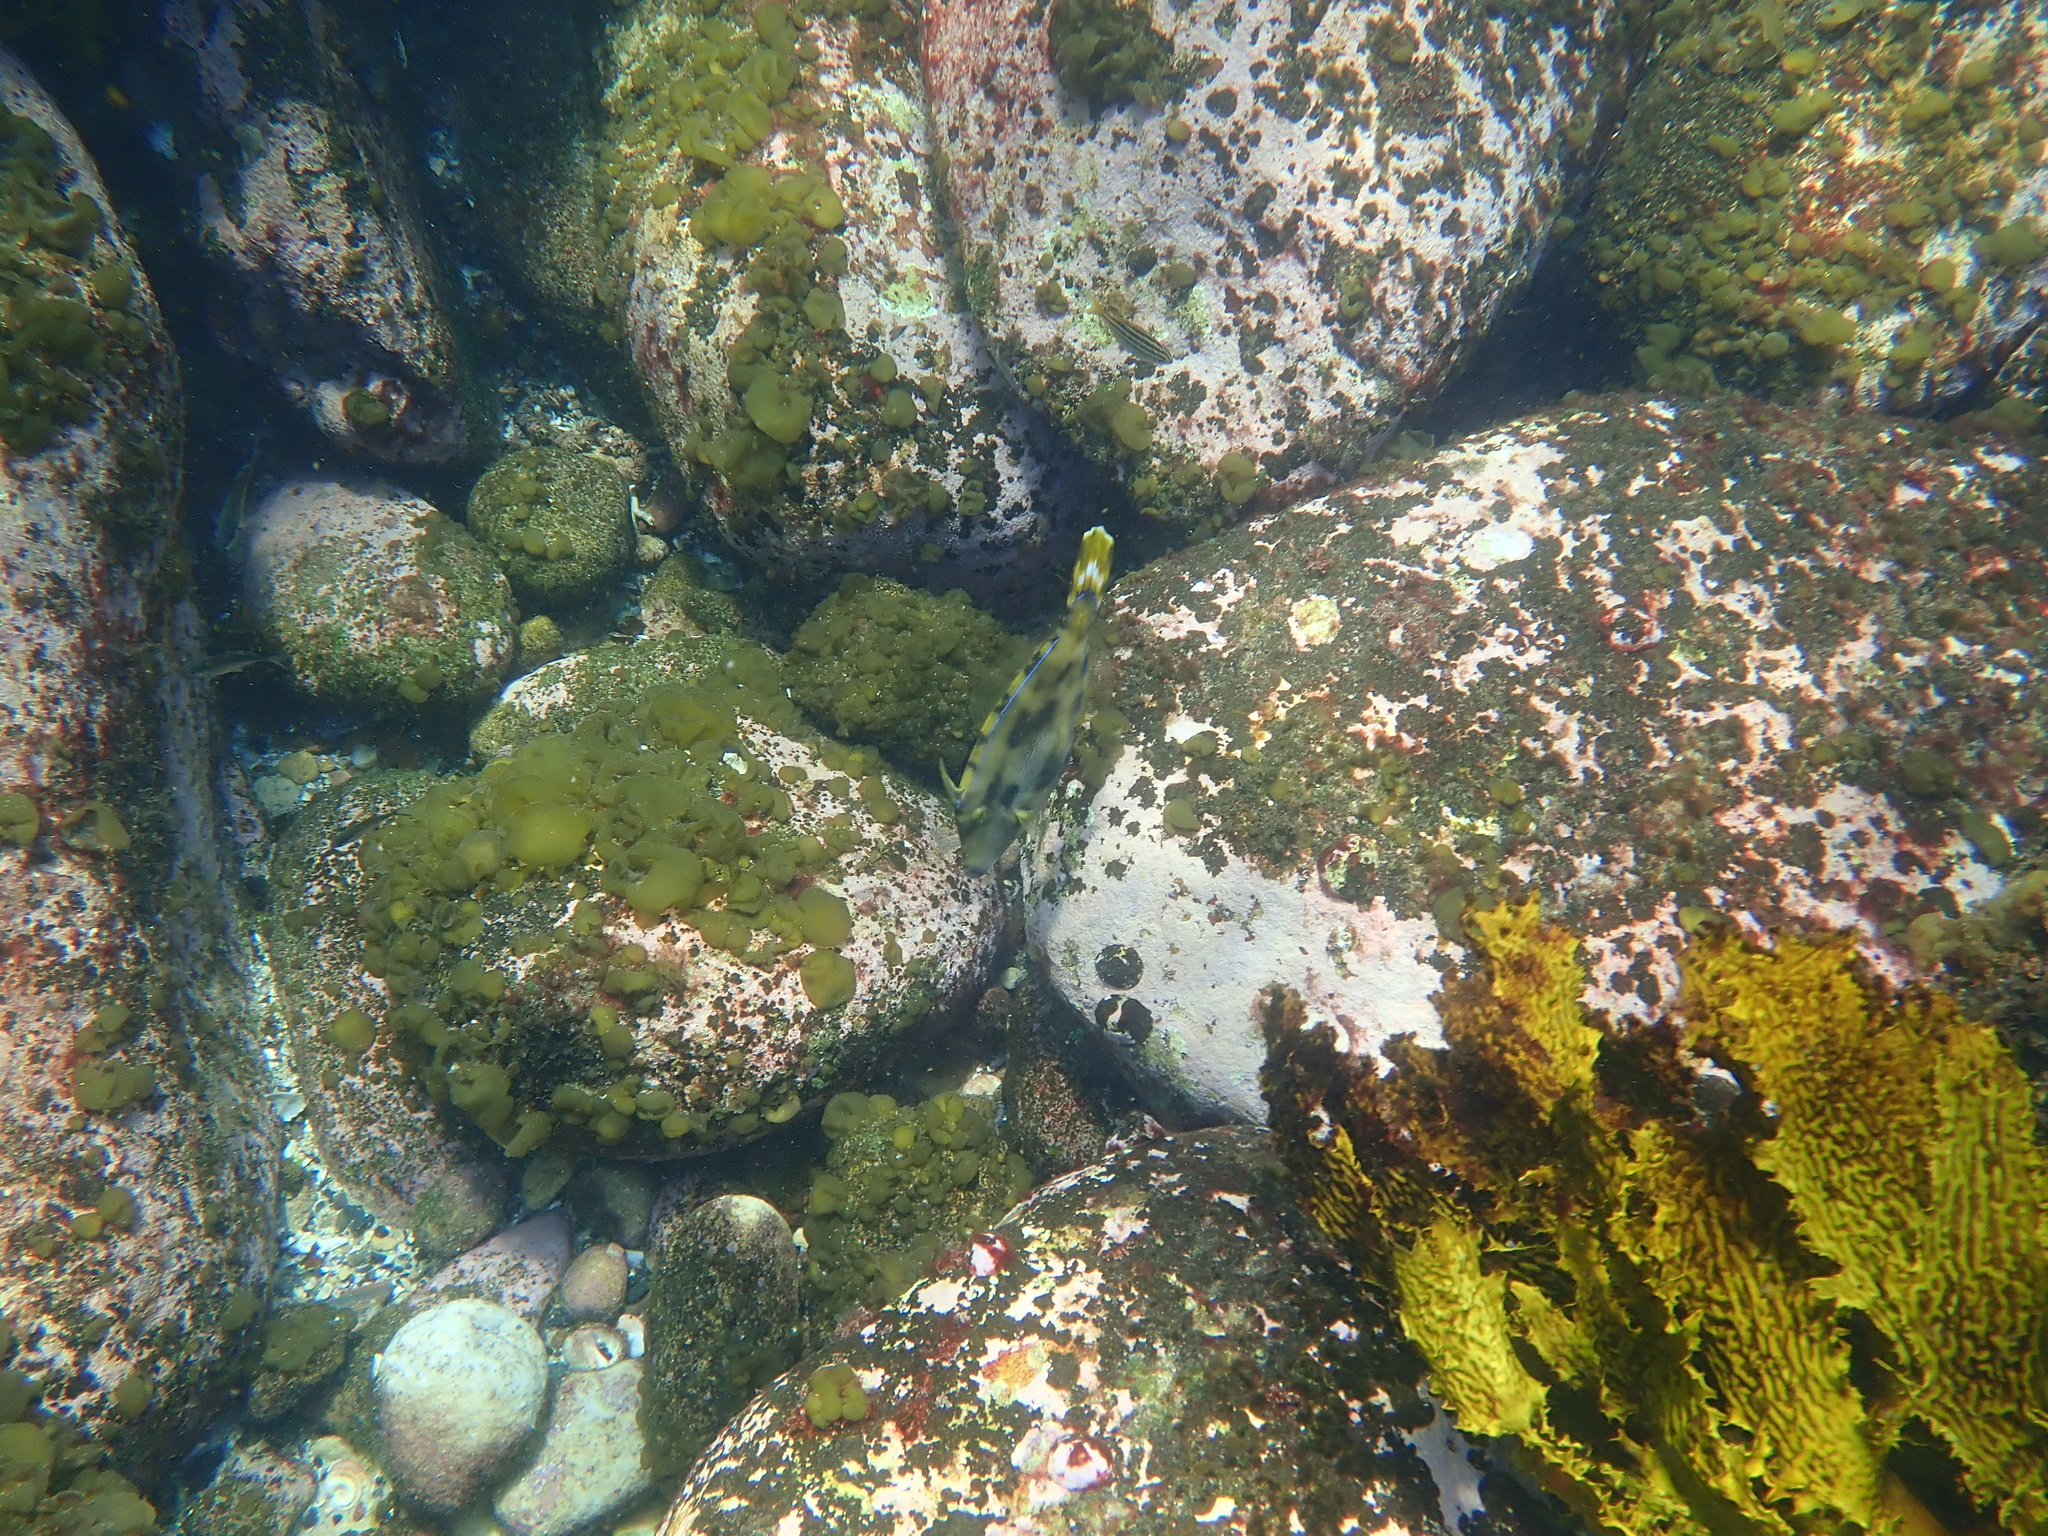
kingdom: Animalia
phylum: Chordata
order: Tetraodontiformes
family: Monacanthidae
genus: Meuschenia
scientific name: Meuschenia trachylepis
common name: Yellowfin leatherjacket
